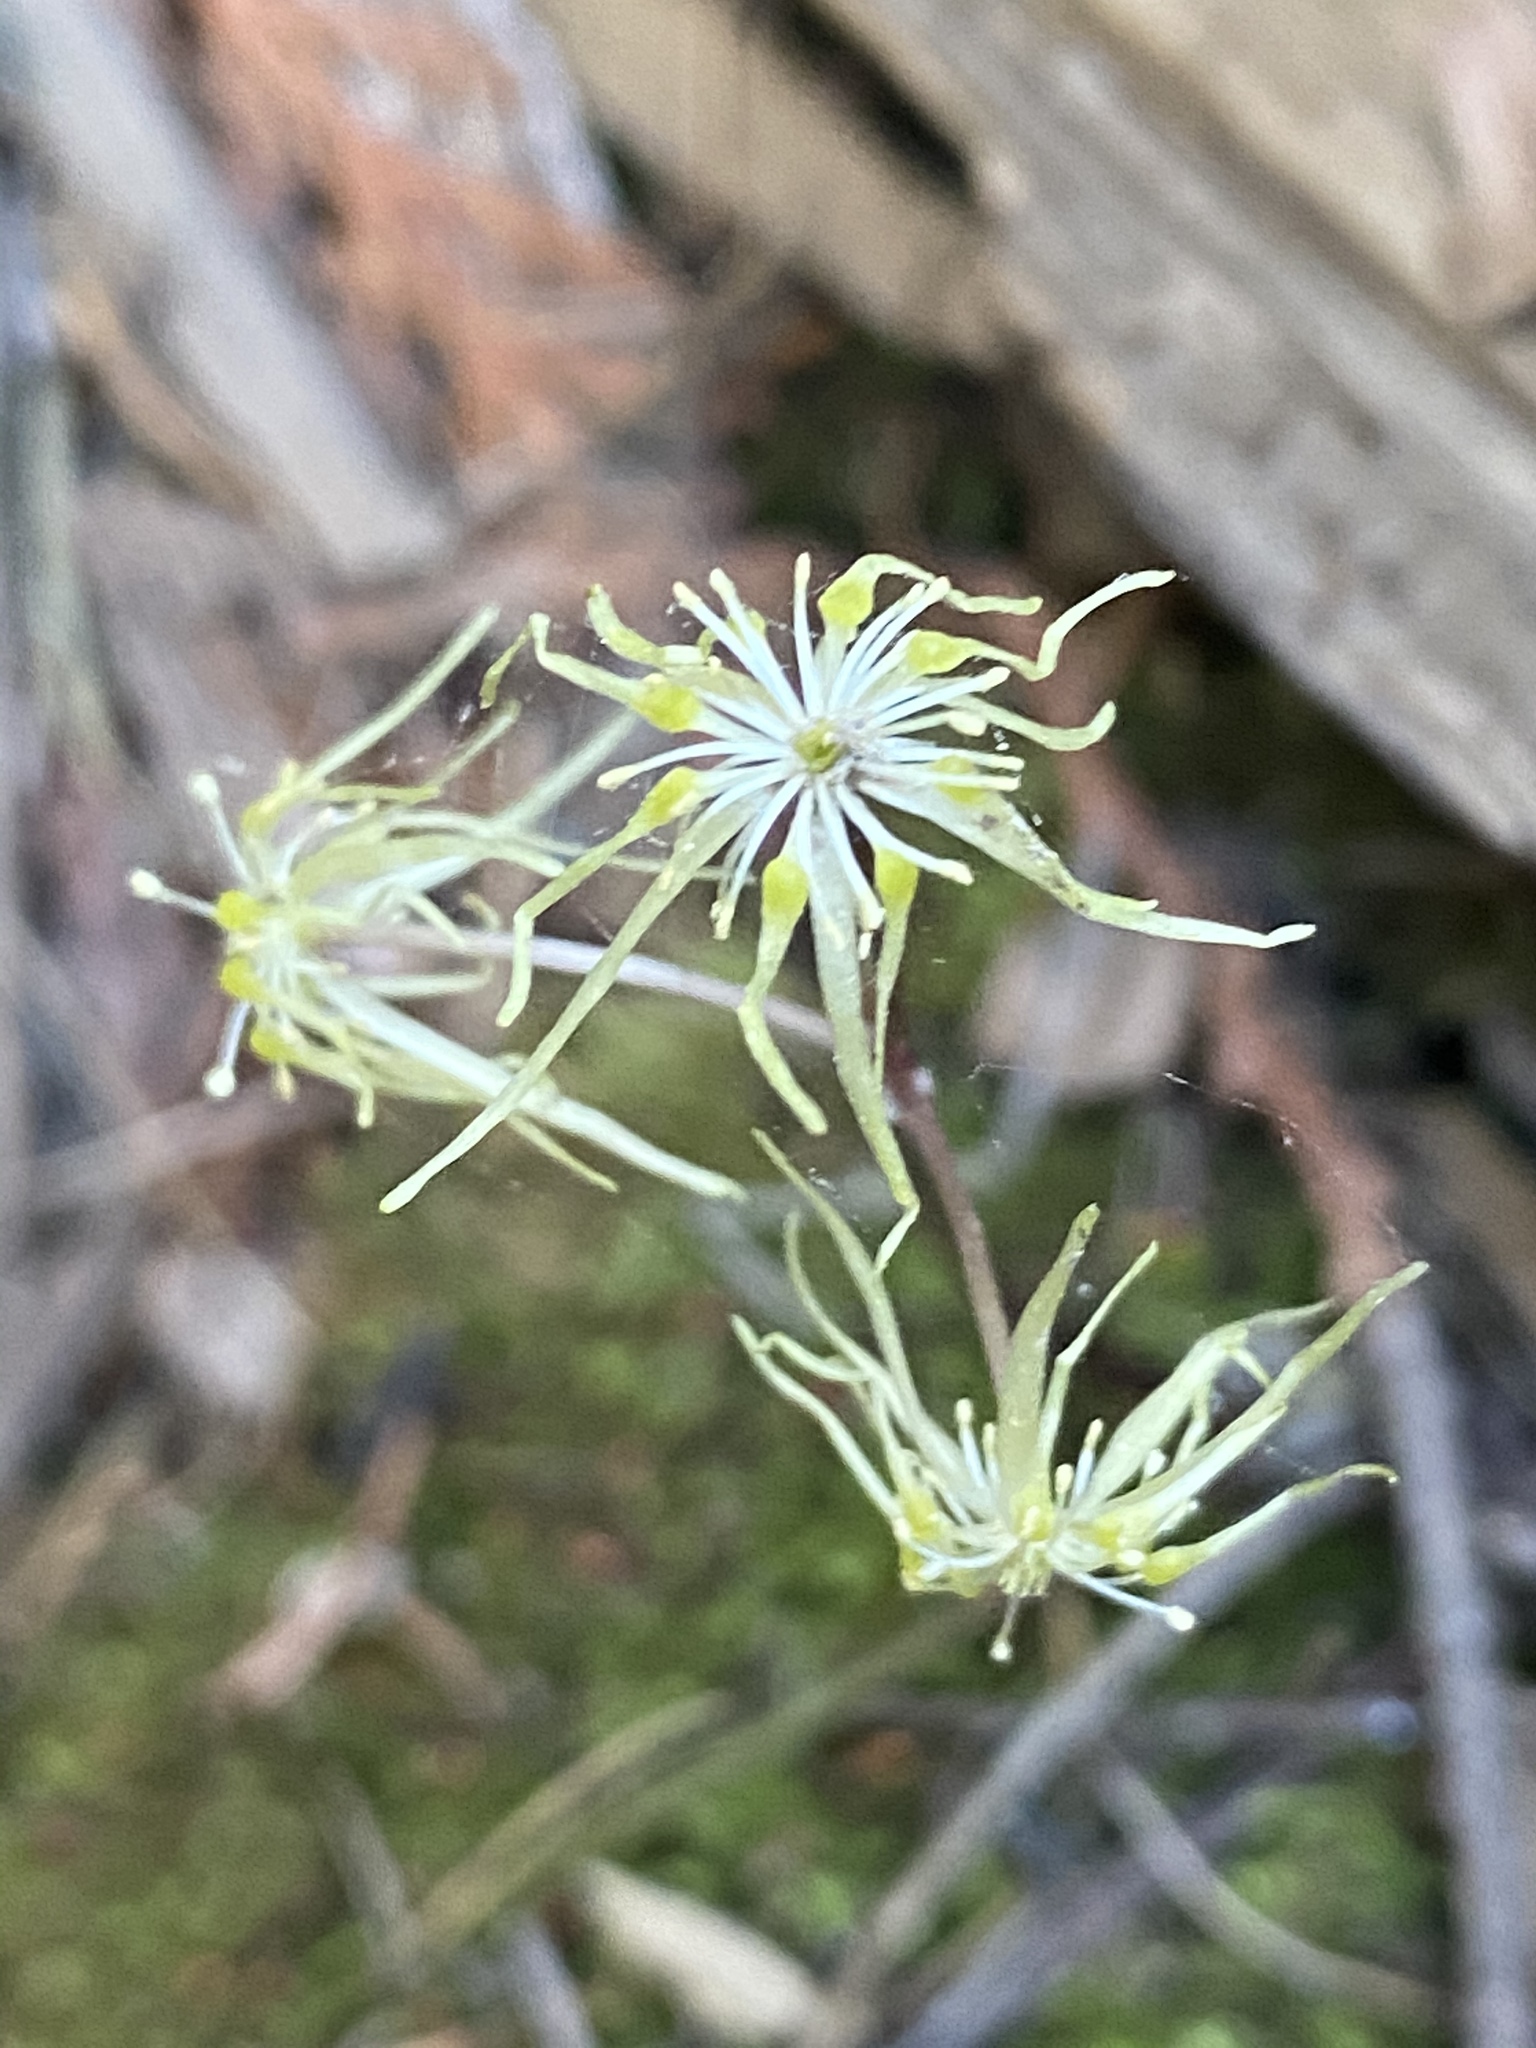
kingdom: Plantae
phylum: Tracheophyta
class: Magnoliopsida
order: Ranunculales
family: Ranunculaceae
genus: Coptis
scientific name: Coptis occidentalis
